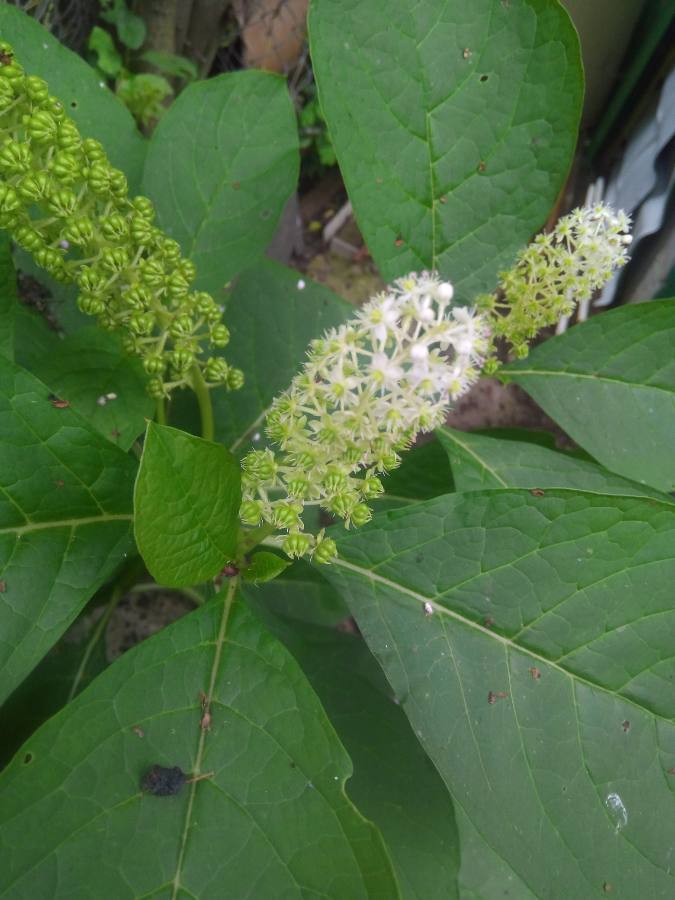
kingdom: Plantae
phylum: Tracheophyta
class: Magnoliopsida
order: Caryophyllales
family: Phytolaccaceae
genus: Phytolacca
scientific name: Phytolacca acinosa
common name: Indian pokeweed
